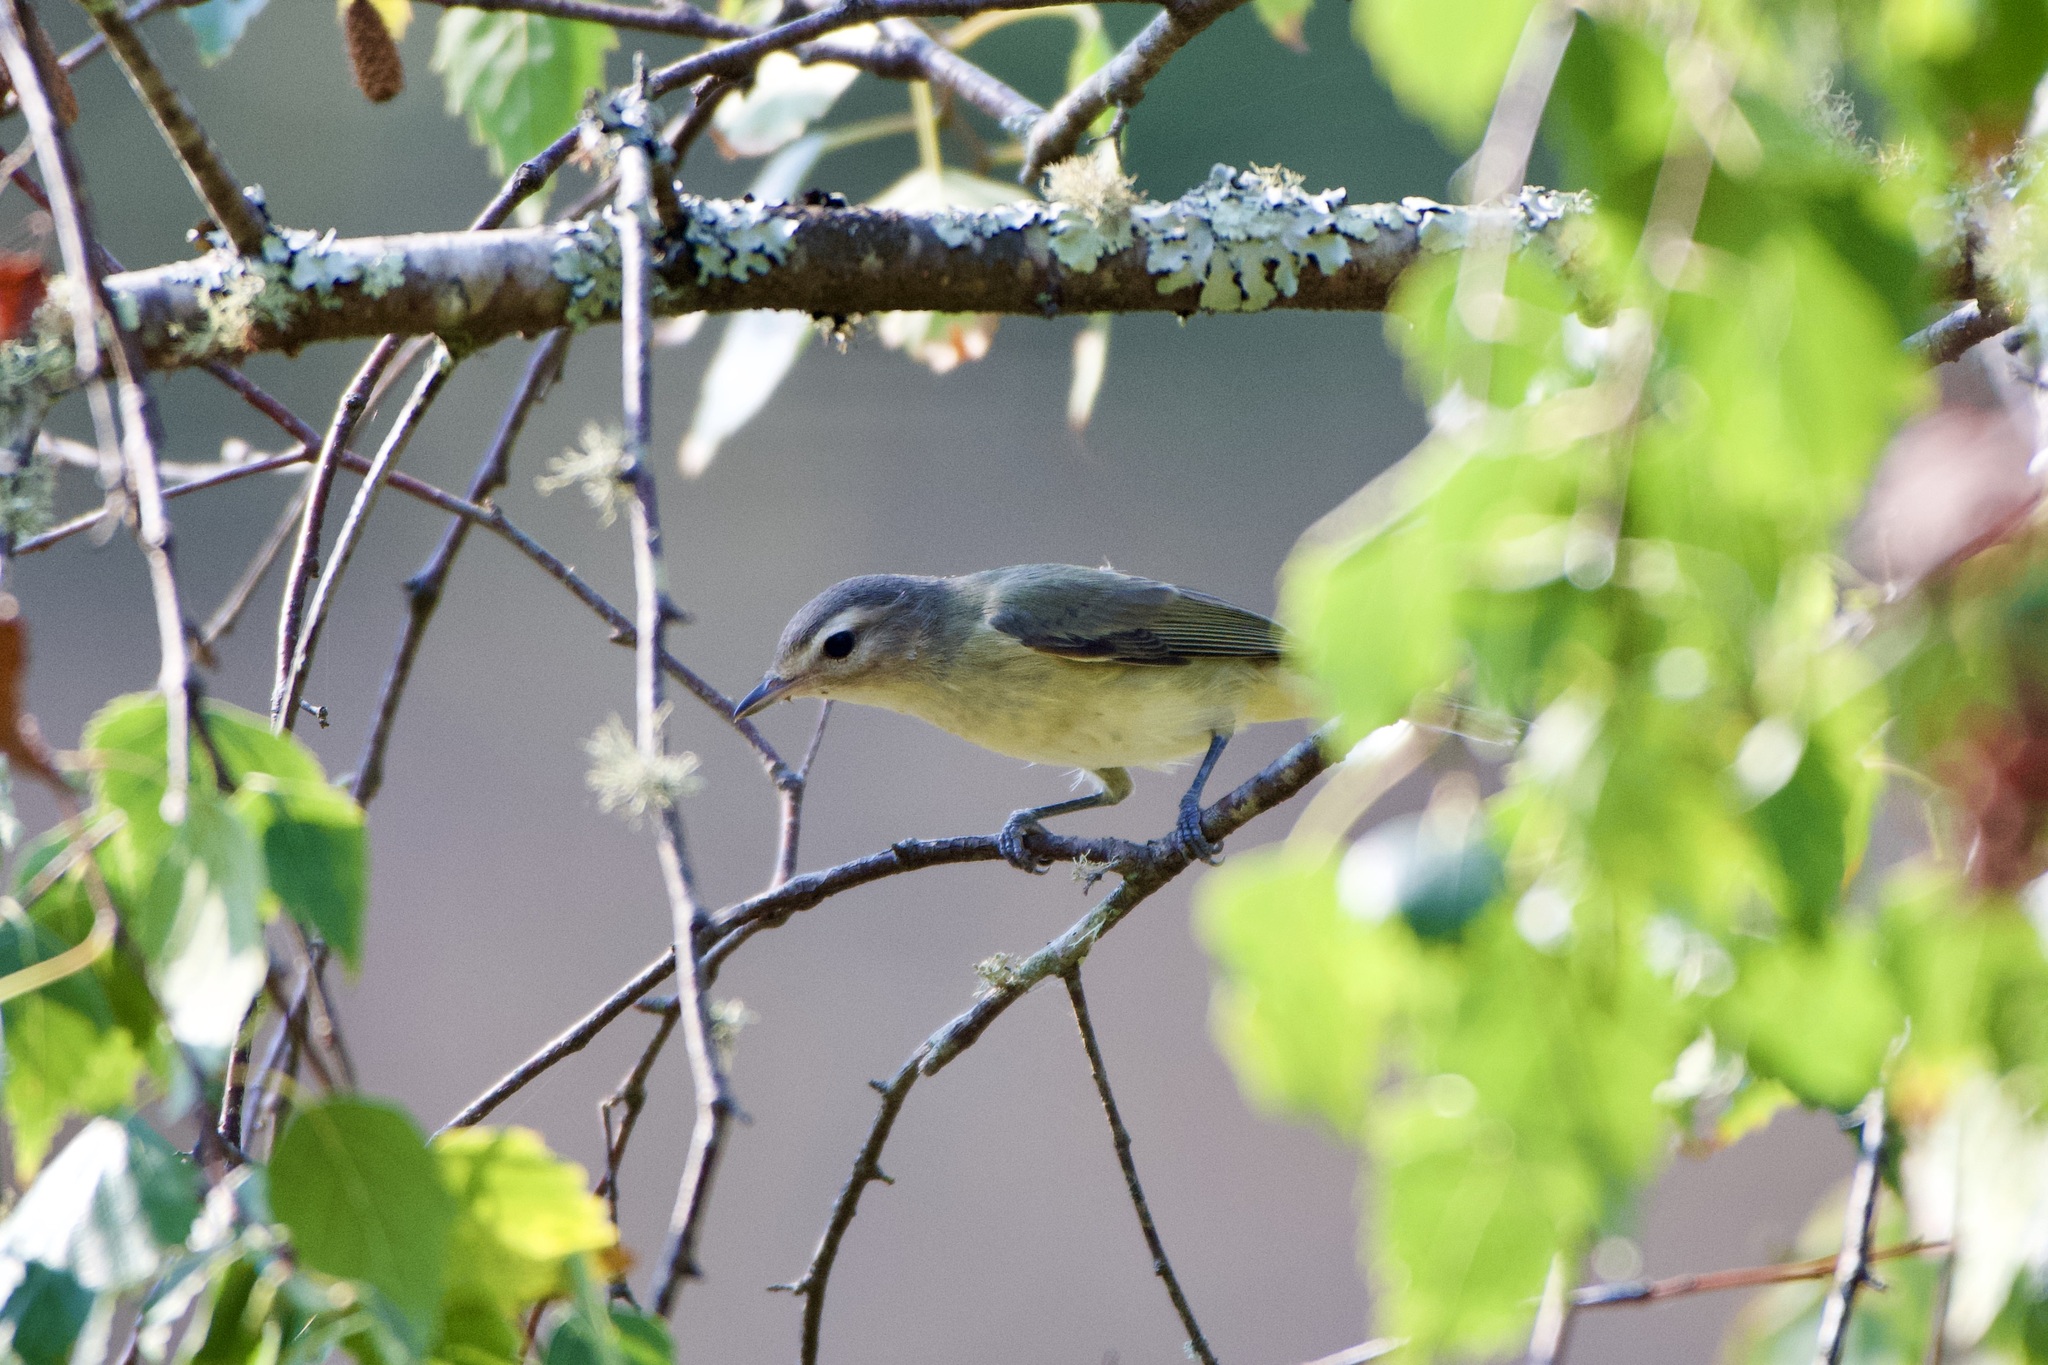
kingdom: Animalia
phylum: Chordata
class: Aves
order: Passeriformes
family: Vireonidae
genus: Vireo
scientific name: Vireo gilvus
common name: Warbling vireo
